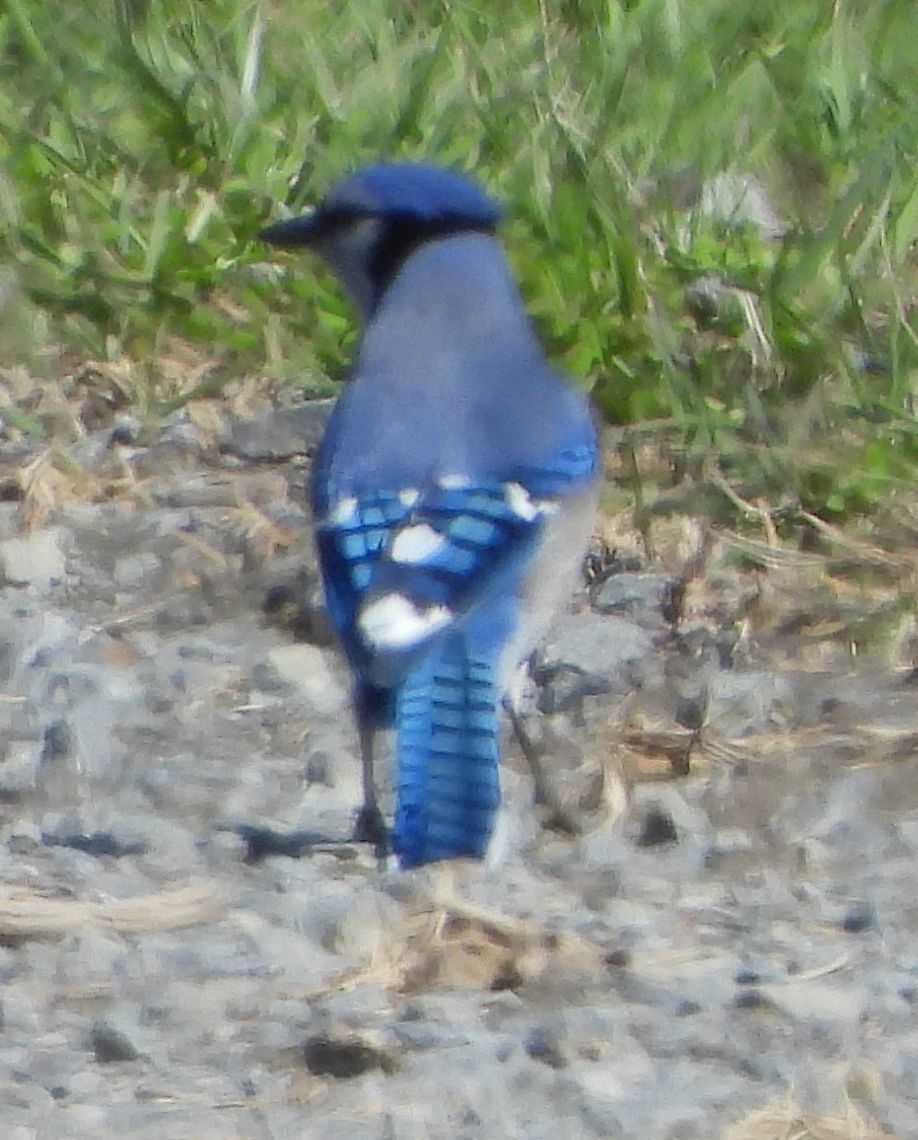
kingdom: Animalia
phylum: Chordata
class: Aves
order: Passeriformes
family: Corvidae
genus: Cyanocitta
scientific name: Cyanocitta cristata
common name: Blue jay
